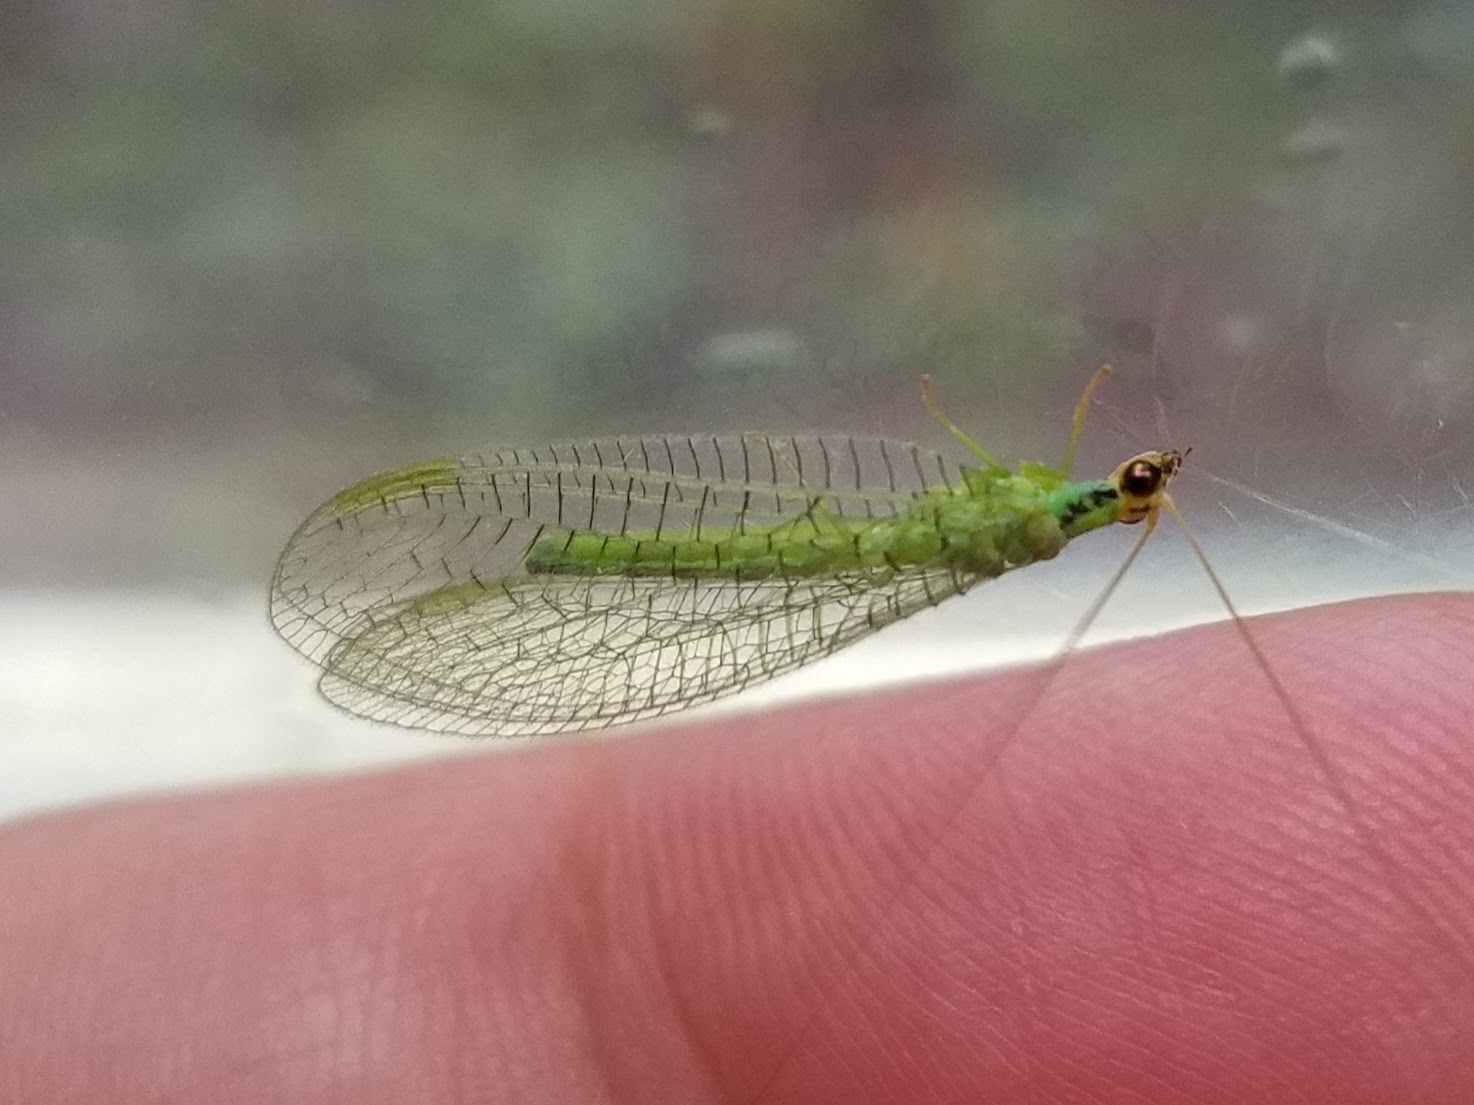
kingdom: Animalia
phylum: Arthropoda
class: Insecta
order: Neuroptera
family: Chrysopidae
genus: Chrysopa
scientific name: Chrysopa incompleta
